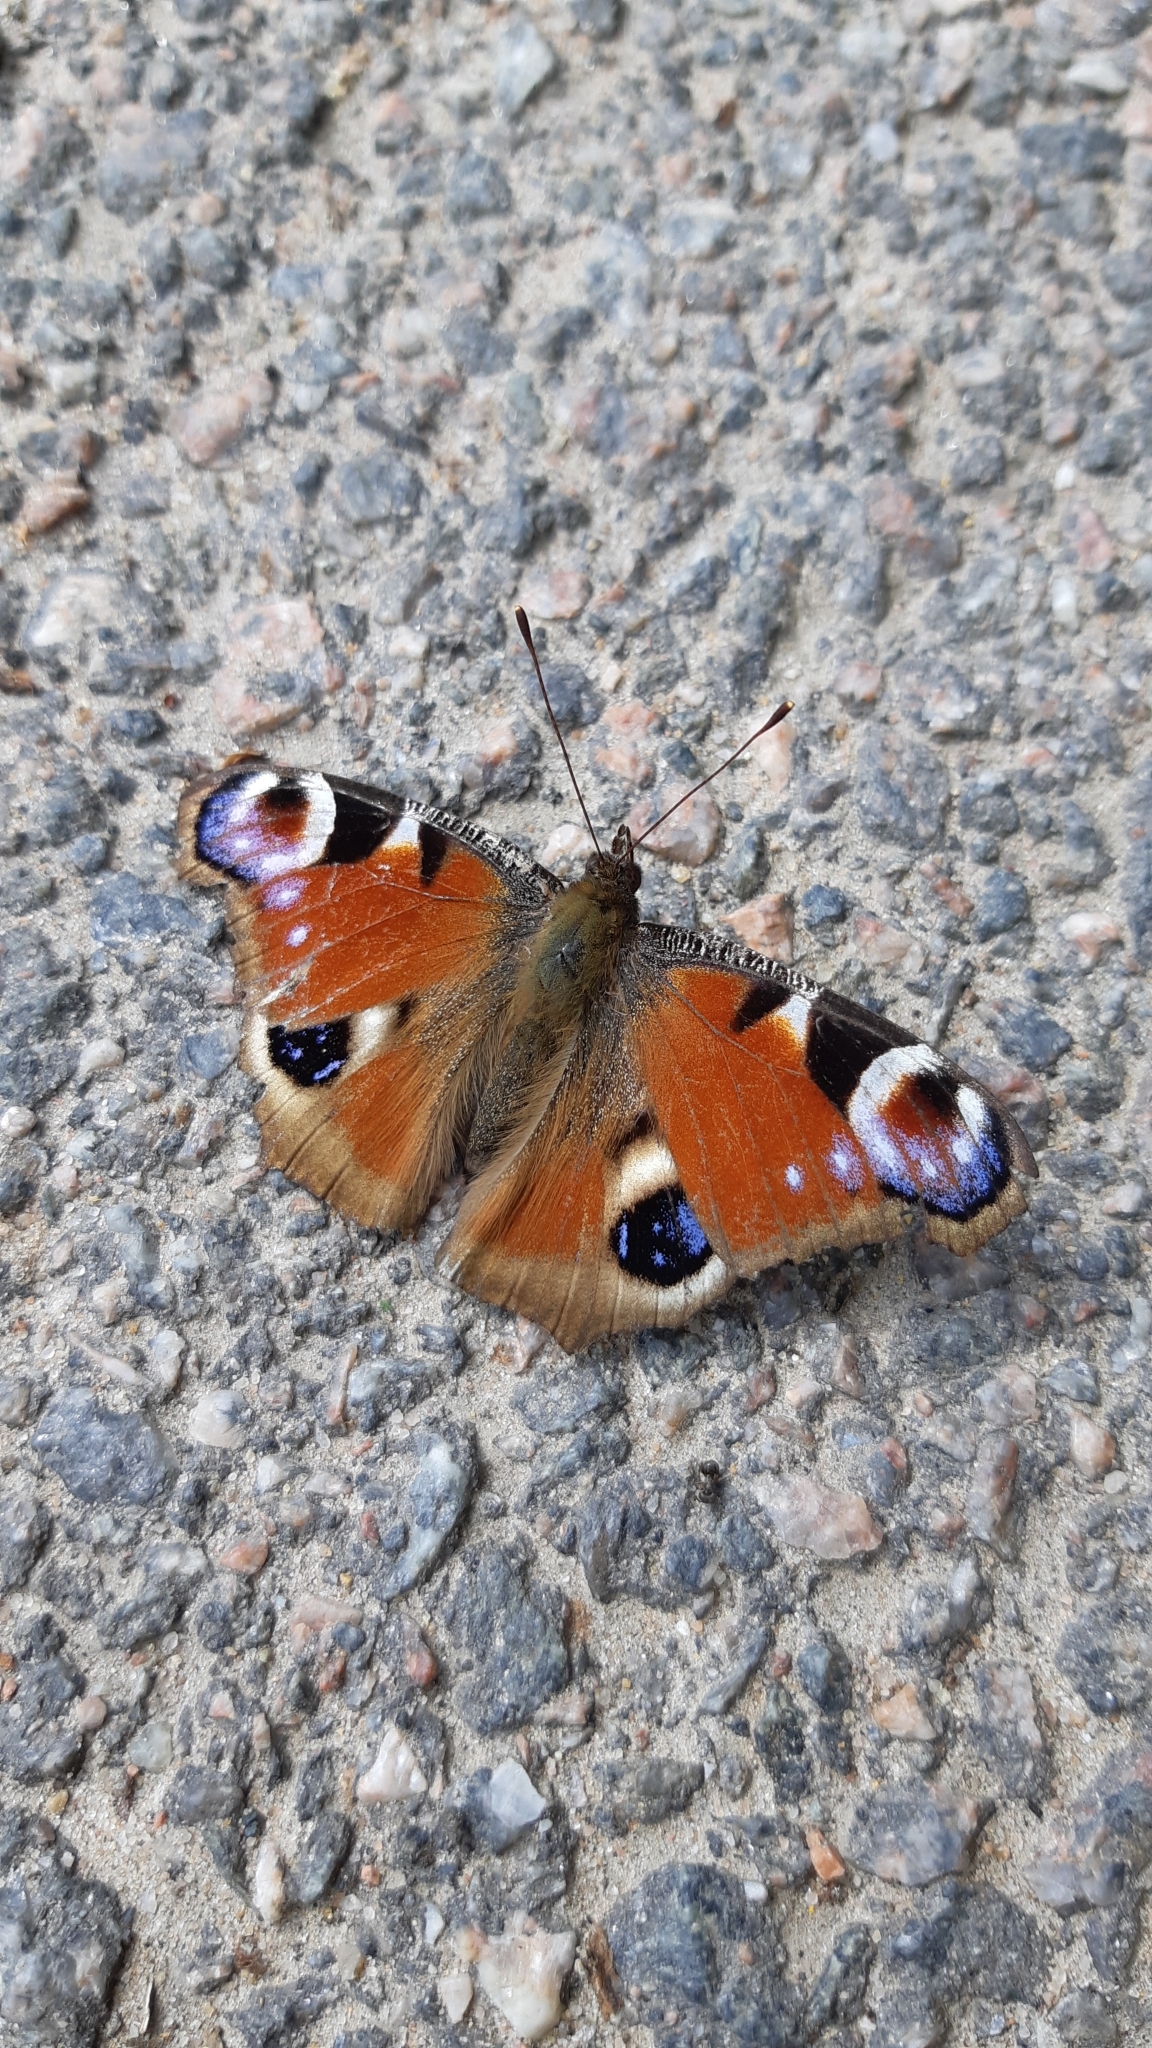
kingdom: Animalia
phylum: Arthropoda
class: Insecta
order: Lepidoptera
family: Nymphalidae
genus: Aglais
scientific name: Aglais io
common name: Peacock
